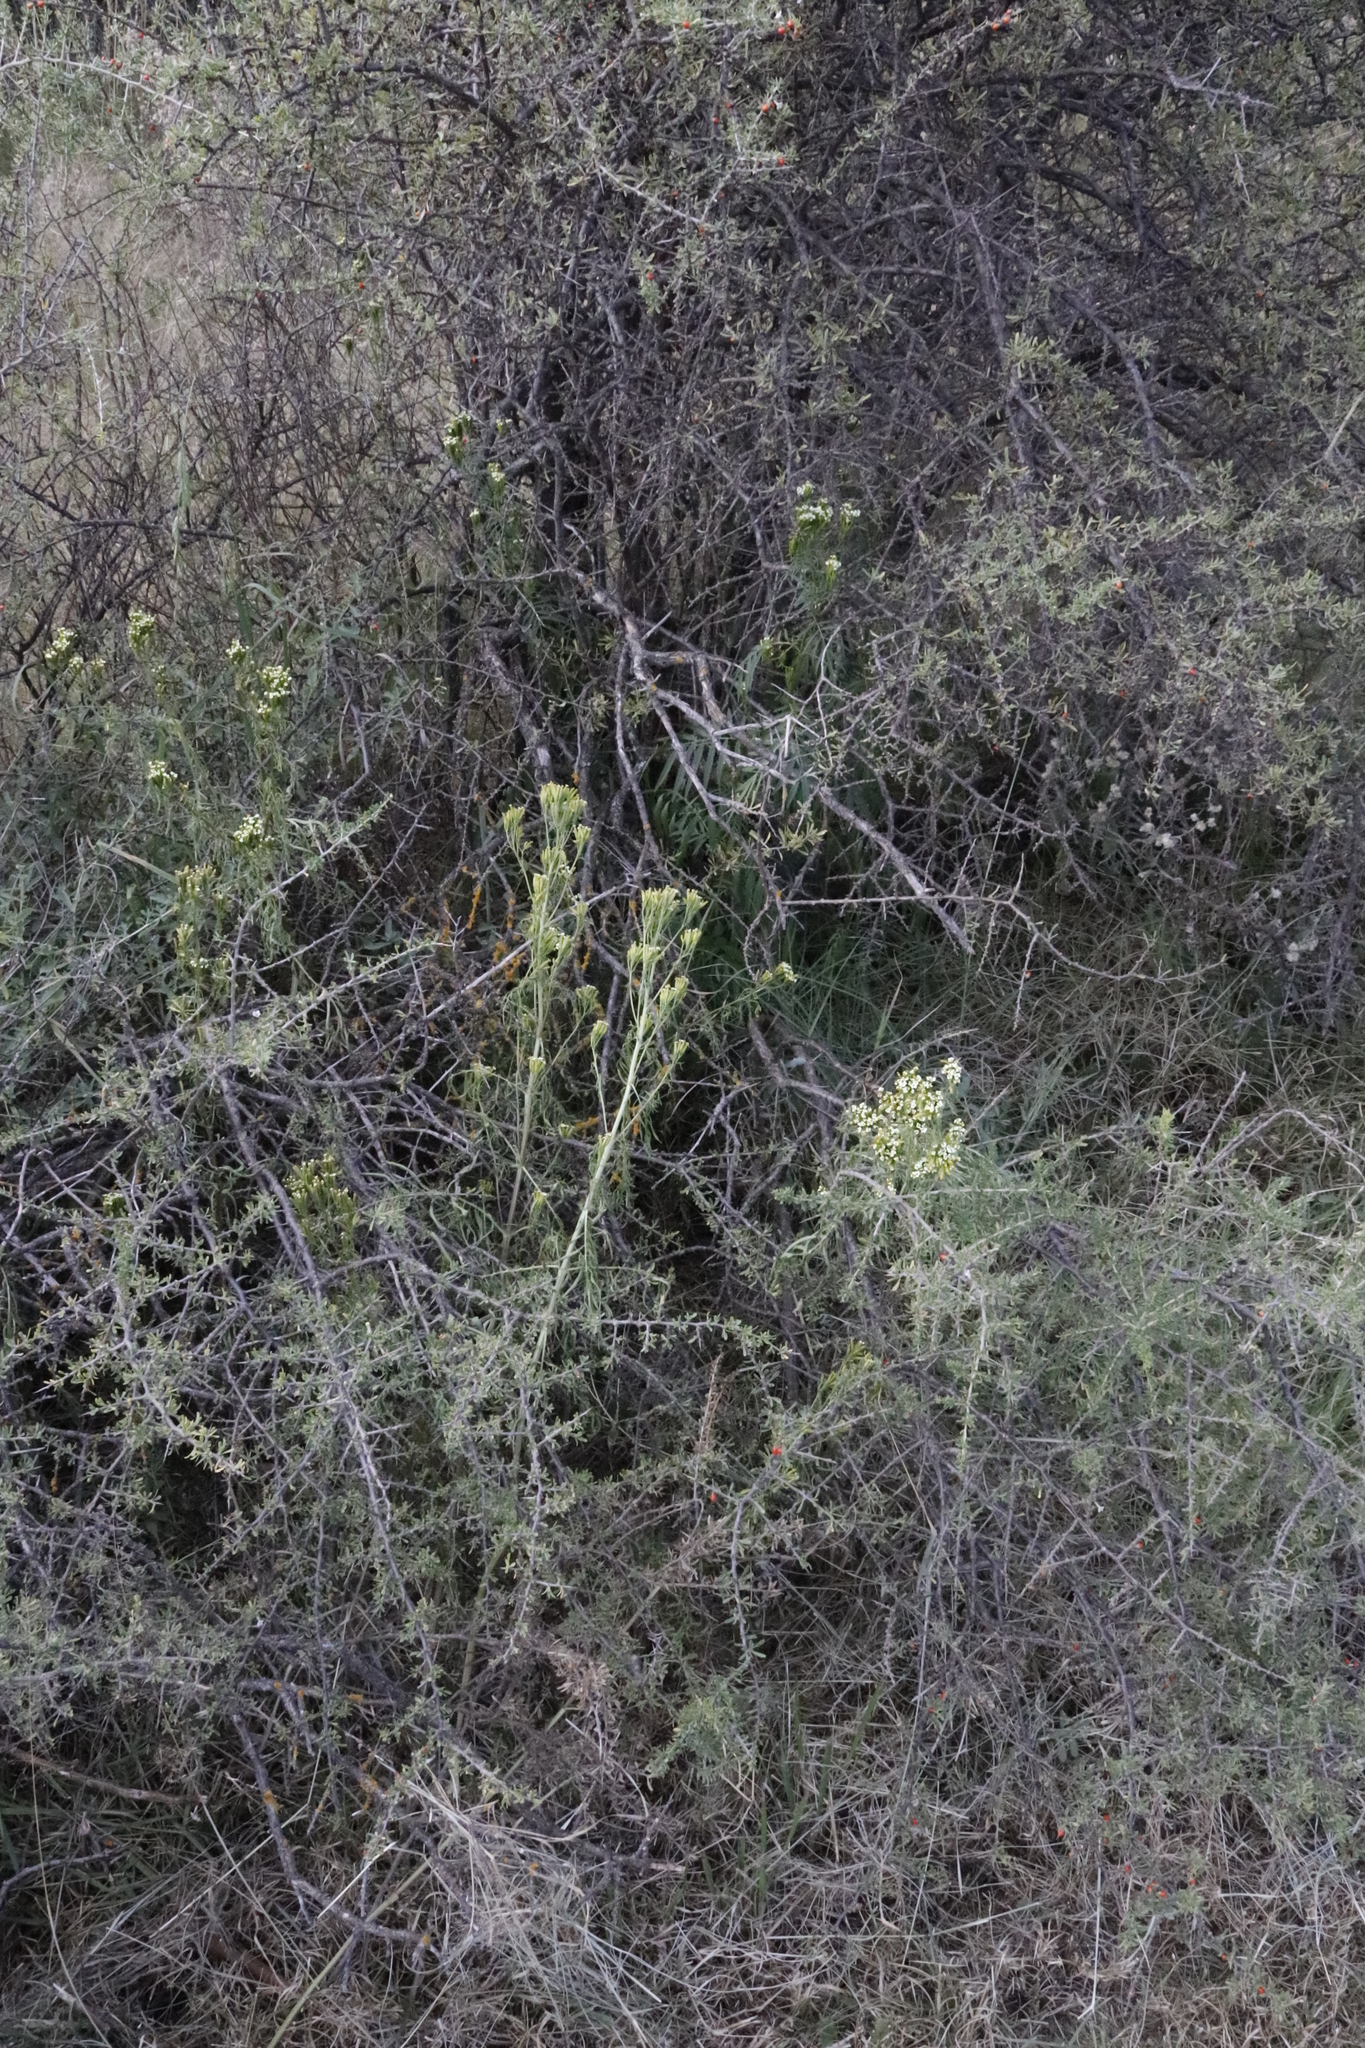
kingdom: Plantae
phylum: Tracheophyta
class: Magnoliopsida
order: Asterales
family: Asteraceae
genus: Tagetes
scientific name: Tagetes minuta
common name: Muster john henry
